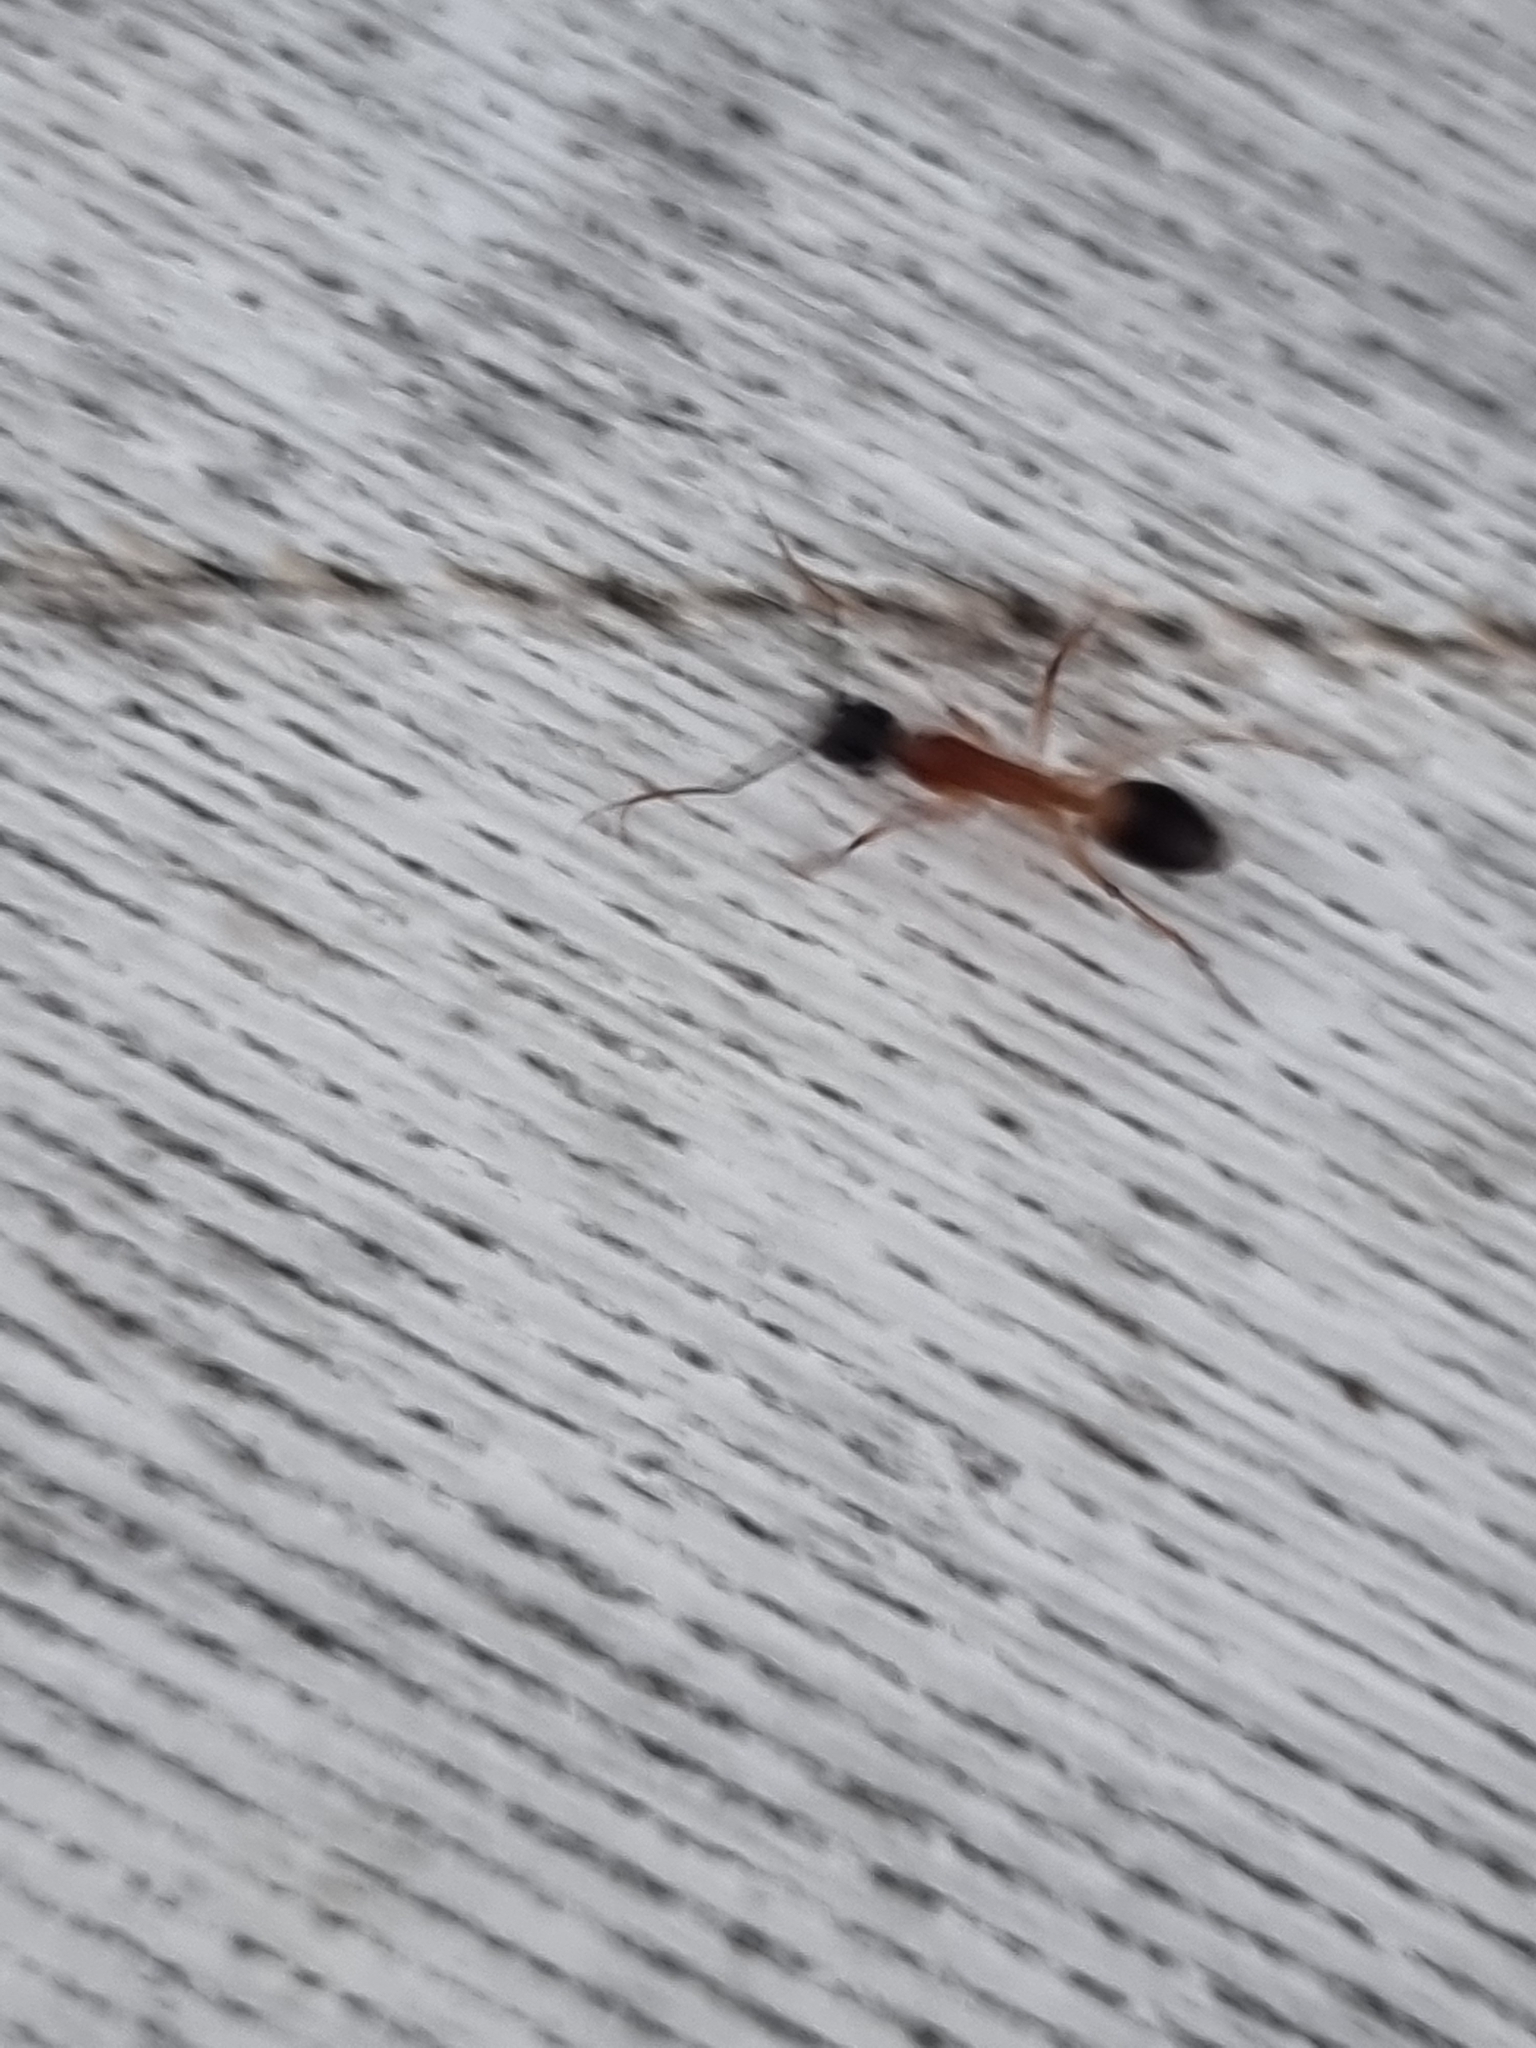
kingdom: Animalia
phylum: Arthropoda
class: Insecta
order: Hymenoptera
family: Formicidae
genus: Camponotus
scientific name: Camponotus consobrinus
